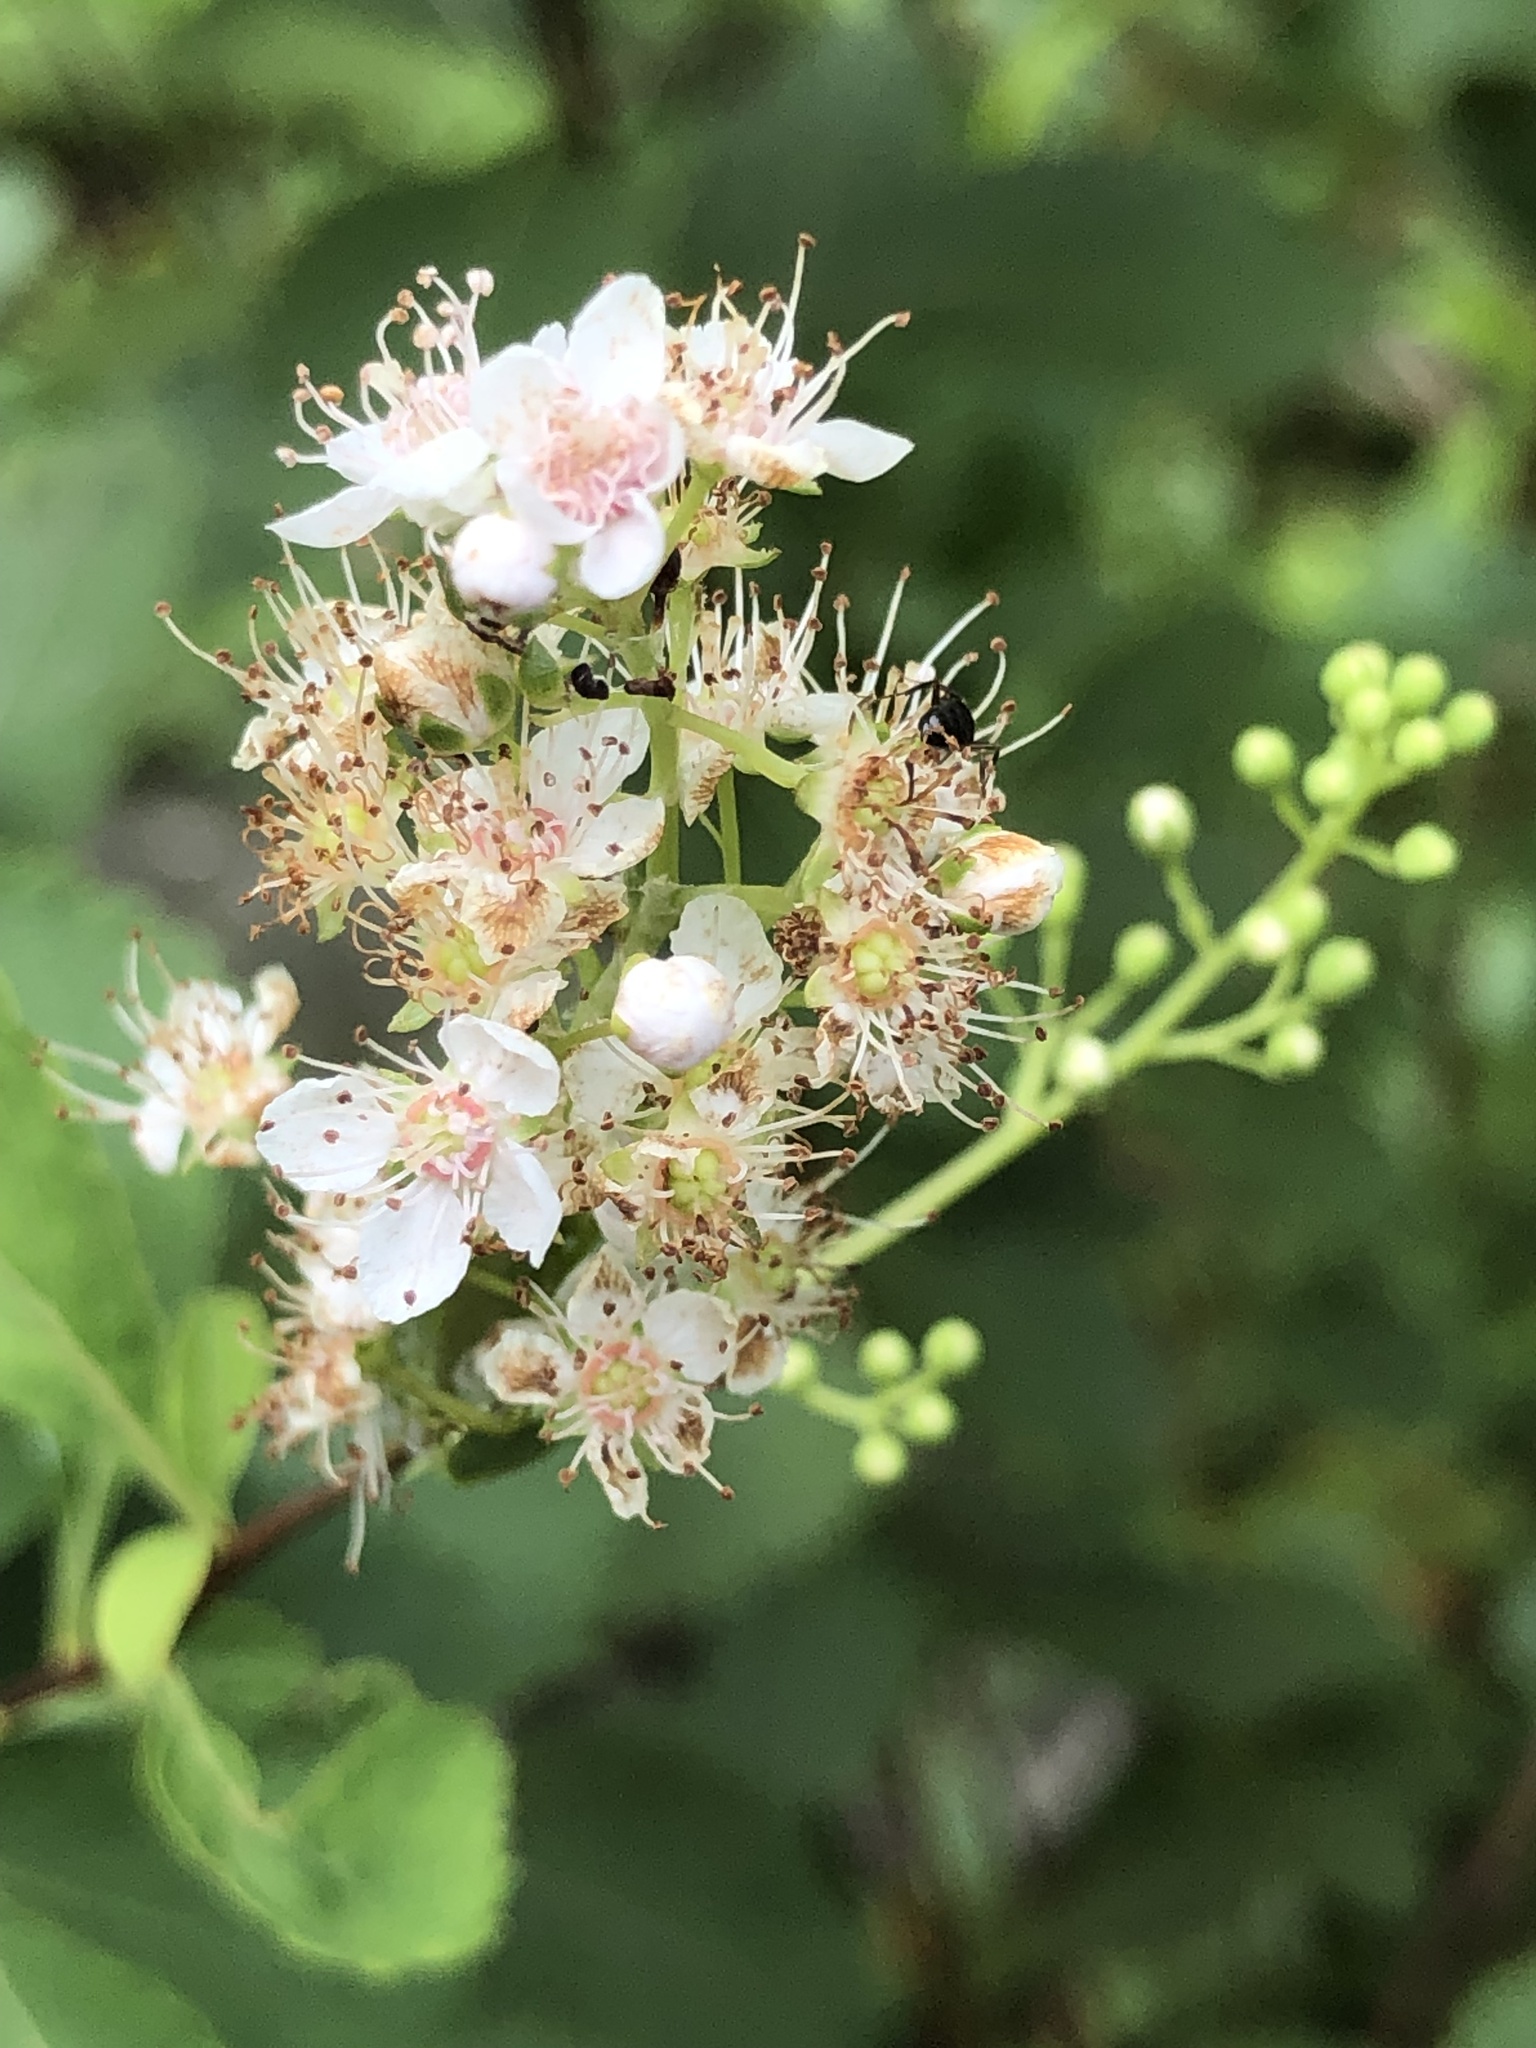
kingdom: Plantae
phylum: Tracheophyta
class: Magnoliopsida
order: Rosales
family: Rosaceae
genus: Spiraea
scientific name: Spiraea alba
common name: Pale bridewort
